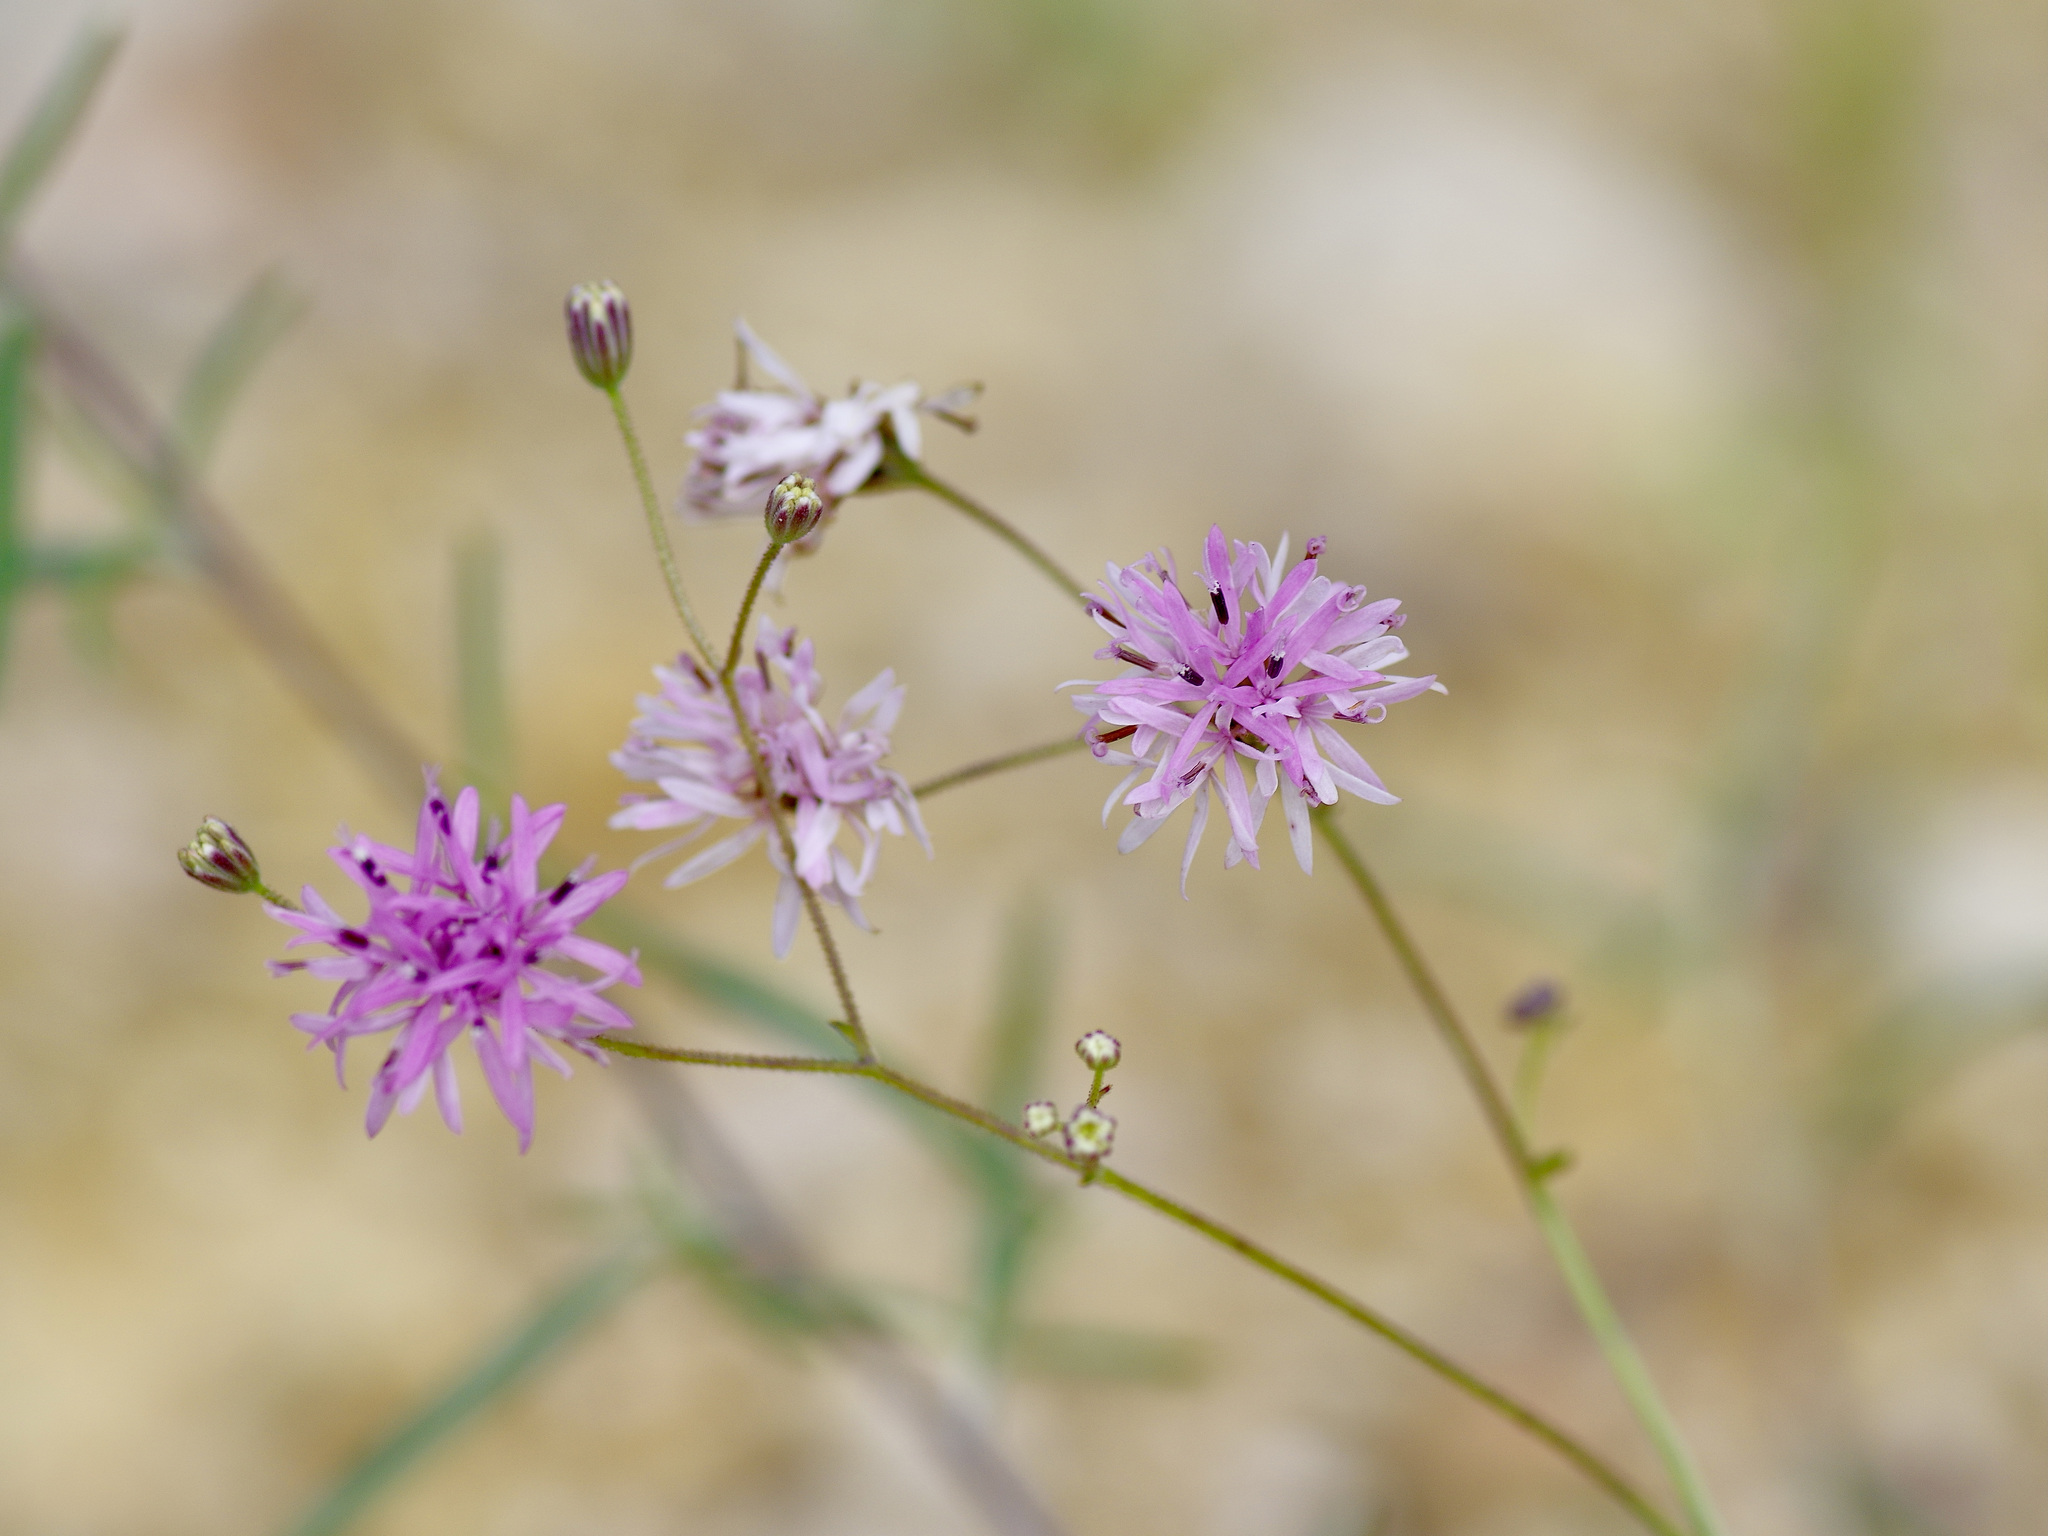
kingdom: Plantae
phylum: Tracheophyta
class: Magnoliopsida
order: Asterales
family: Asteraceae
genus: Palafoxia
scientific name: Palafoxia callosa
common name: Small palafox
